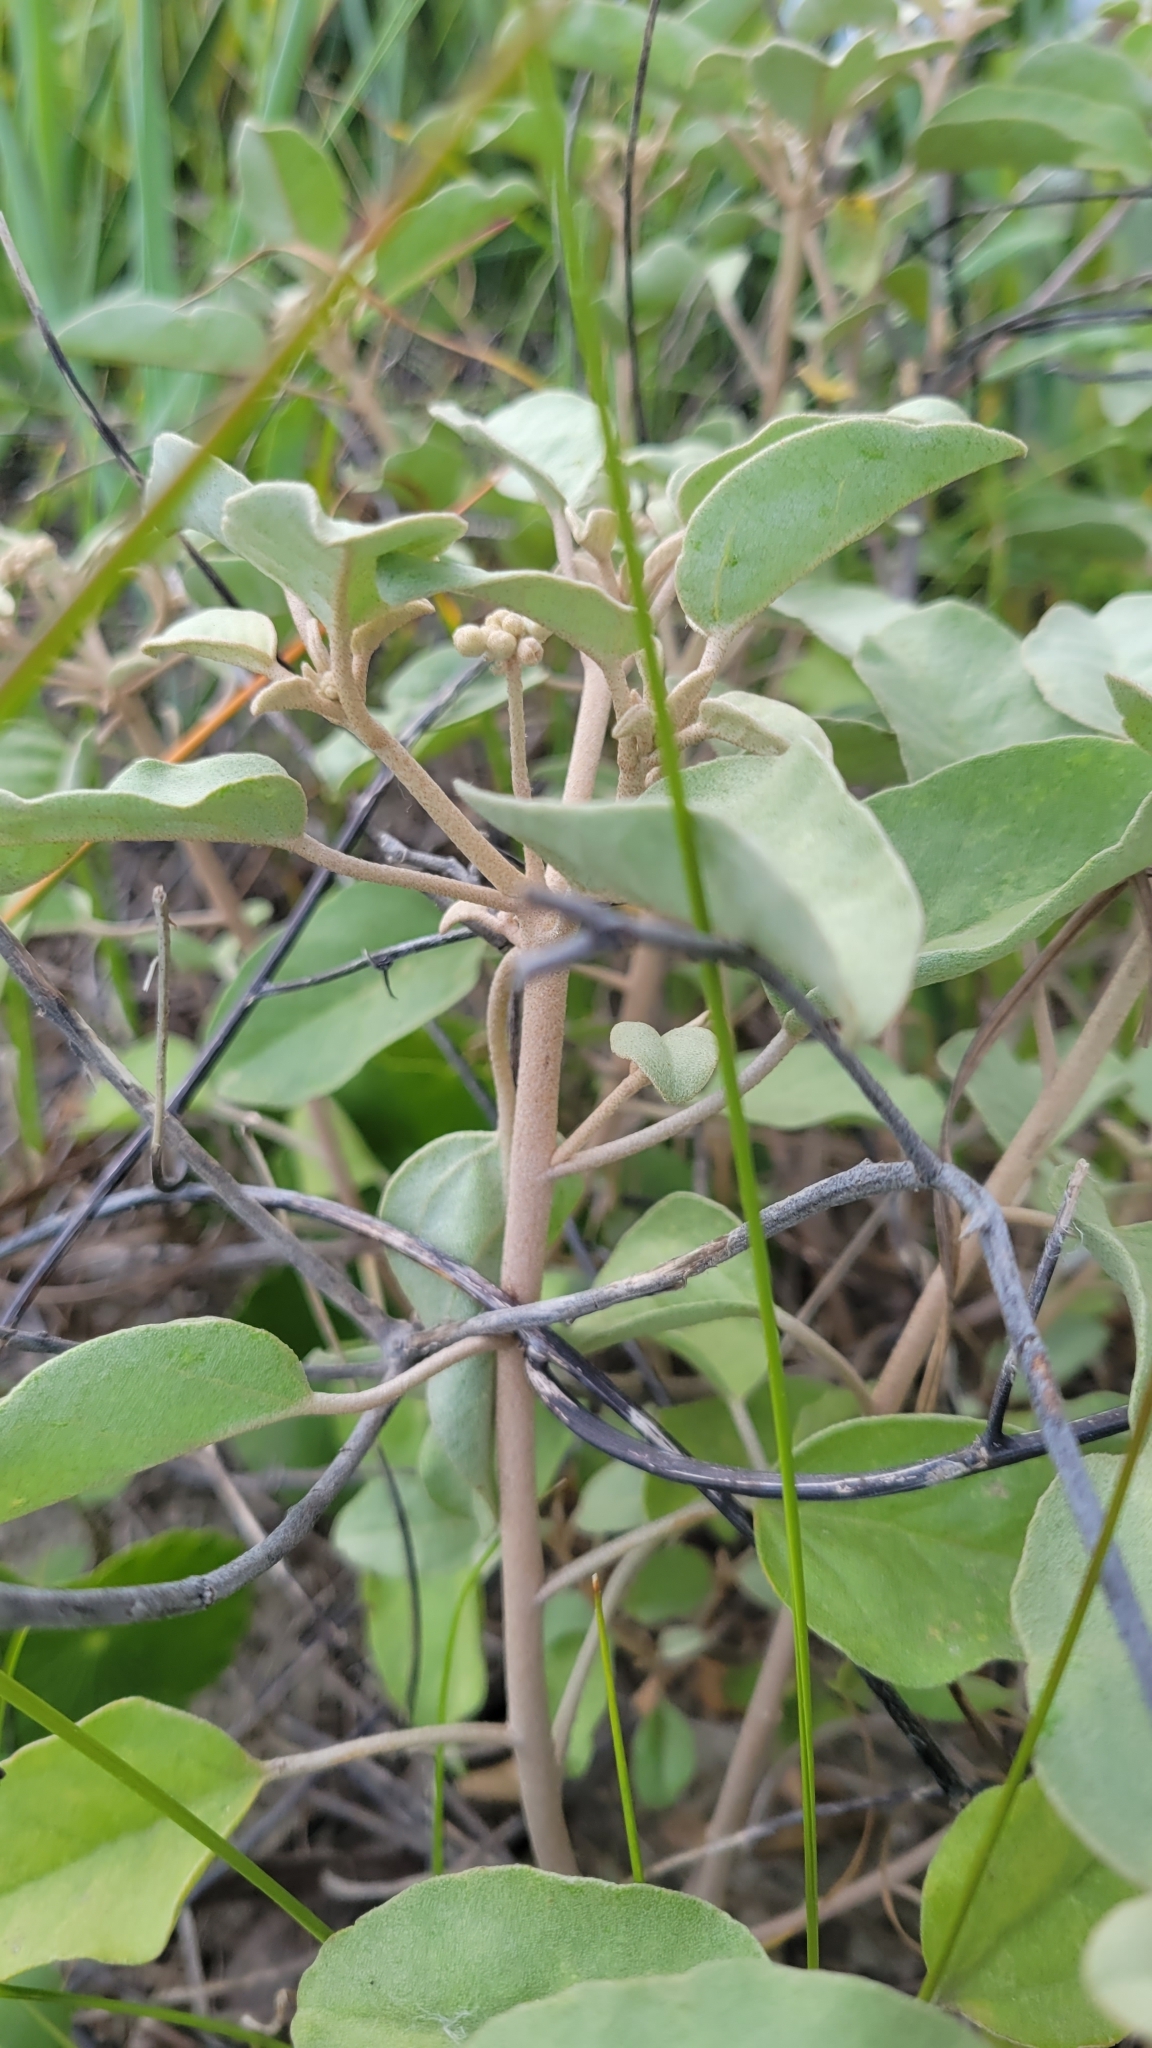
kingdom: Plantae
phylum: Tracheophyta
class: Magnoliopsida
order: Malpighiales
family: Euphorbiaceae
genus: Croton
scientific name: Croton punctatus
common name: Beach-tea
